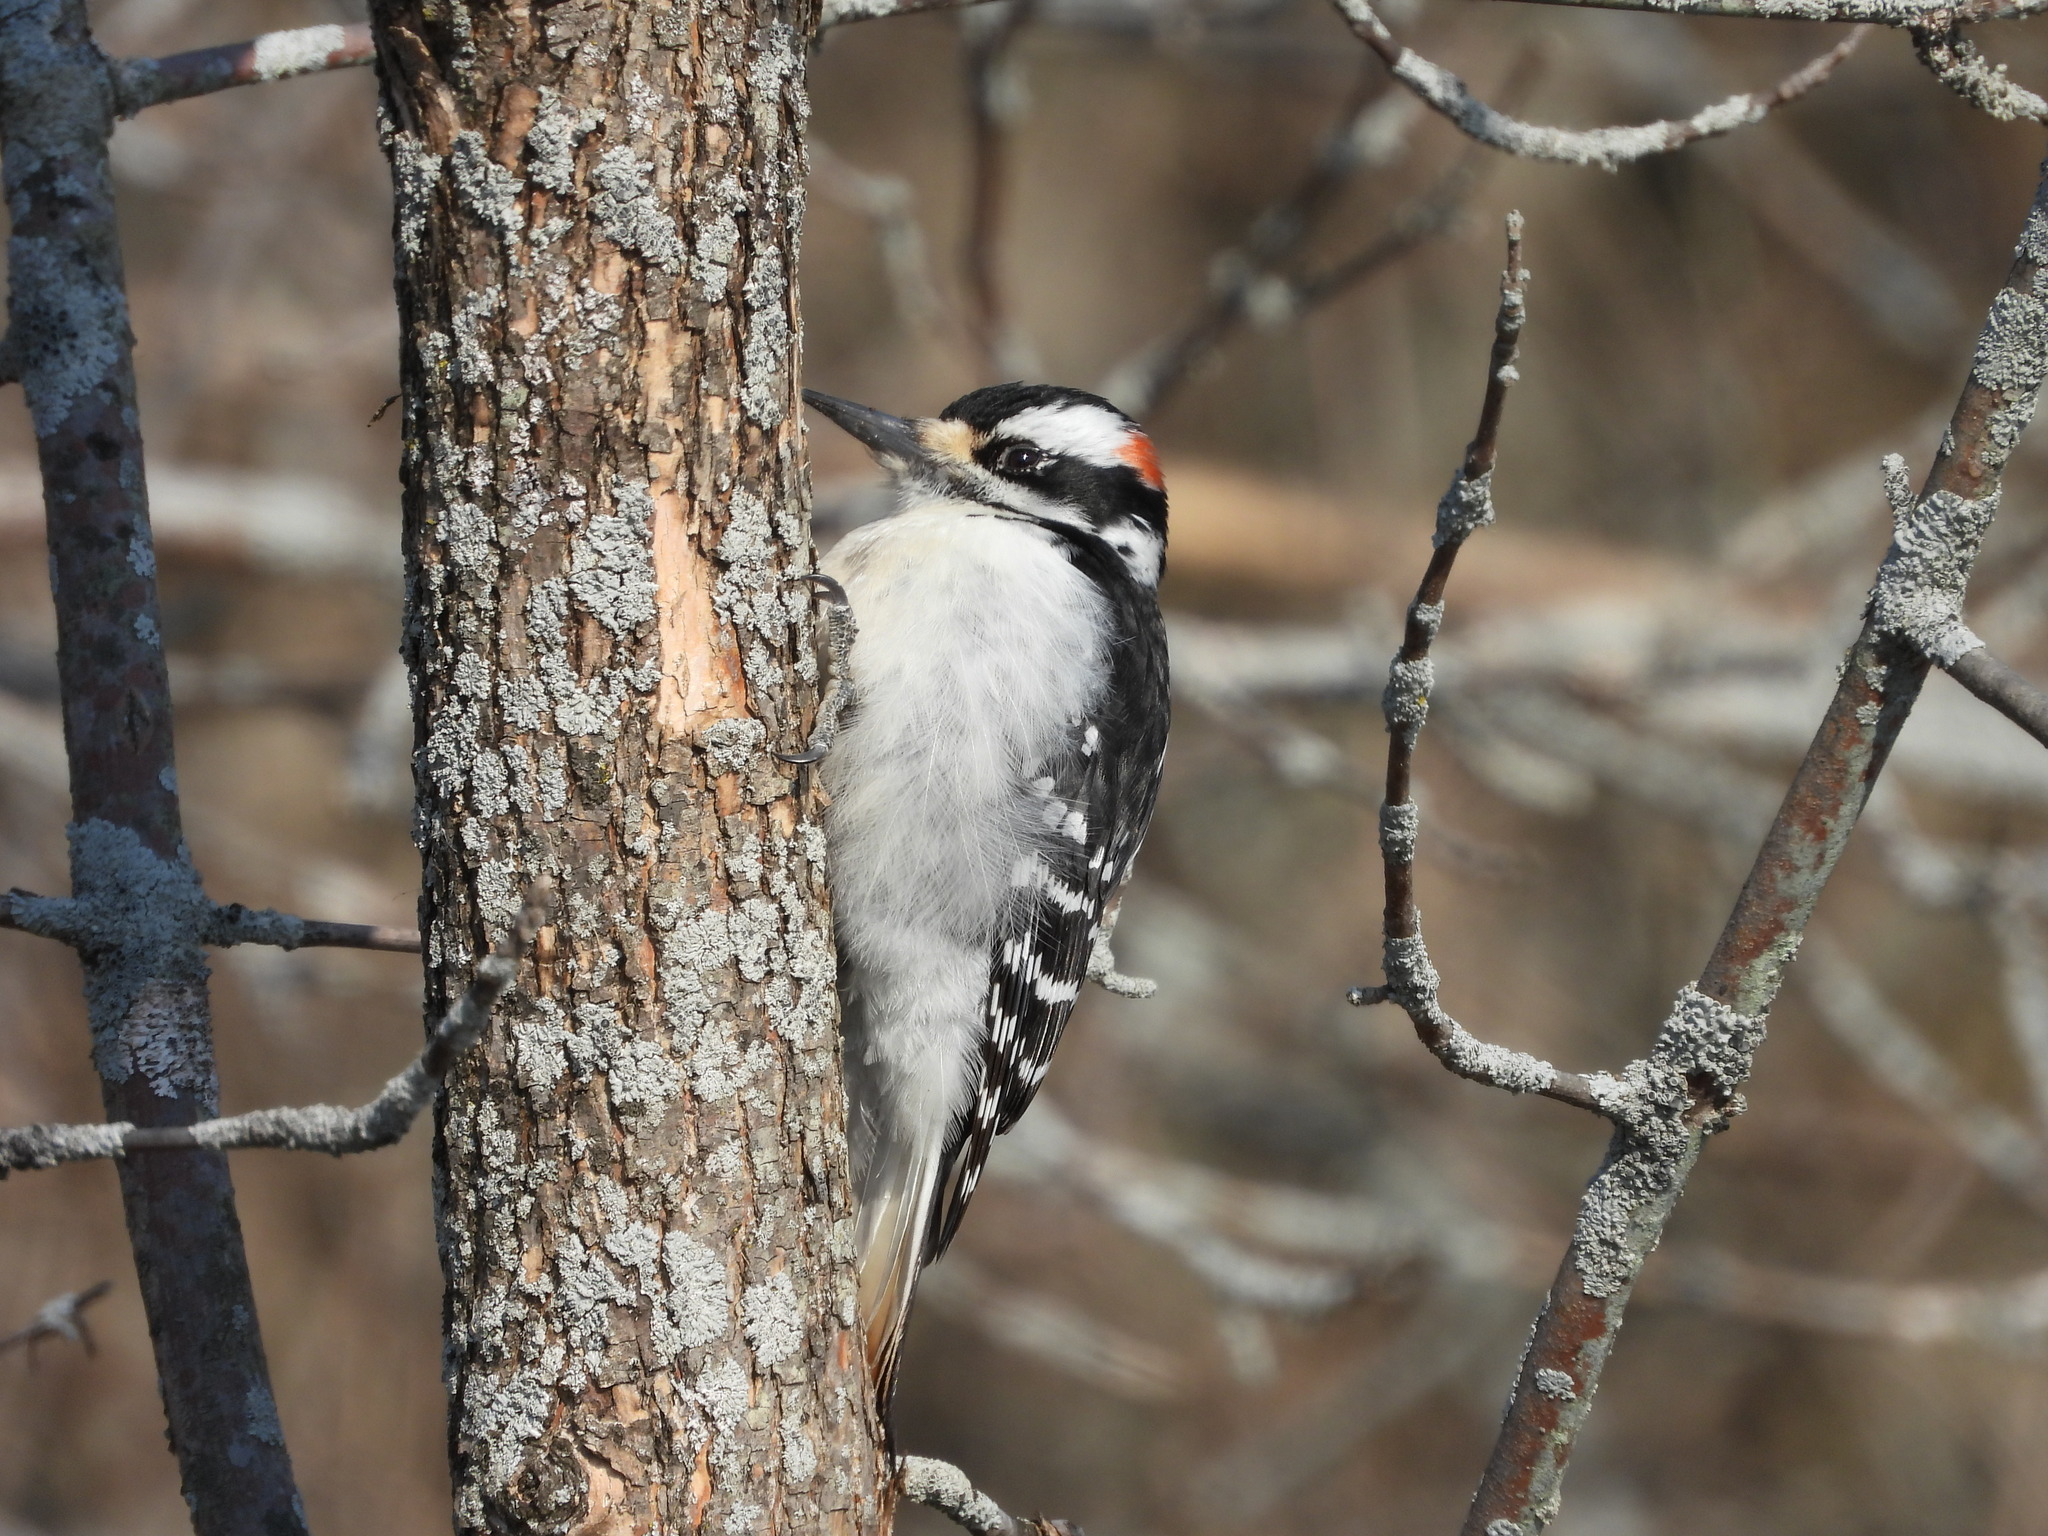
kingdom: Animalia
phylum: Chordata
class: Aves
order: Piciformes
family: Picidae
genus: Leuconotopicus
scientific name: Leuconotopicus villosus
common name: Hairy woodpecker
